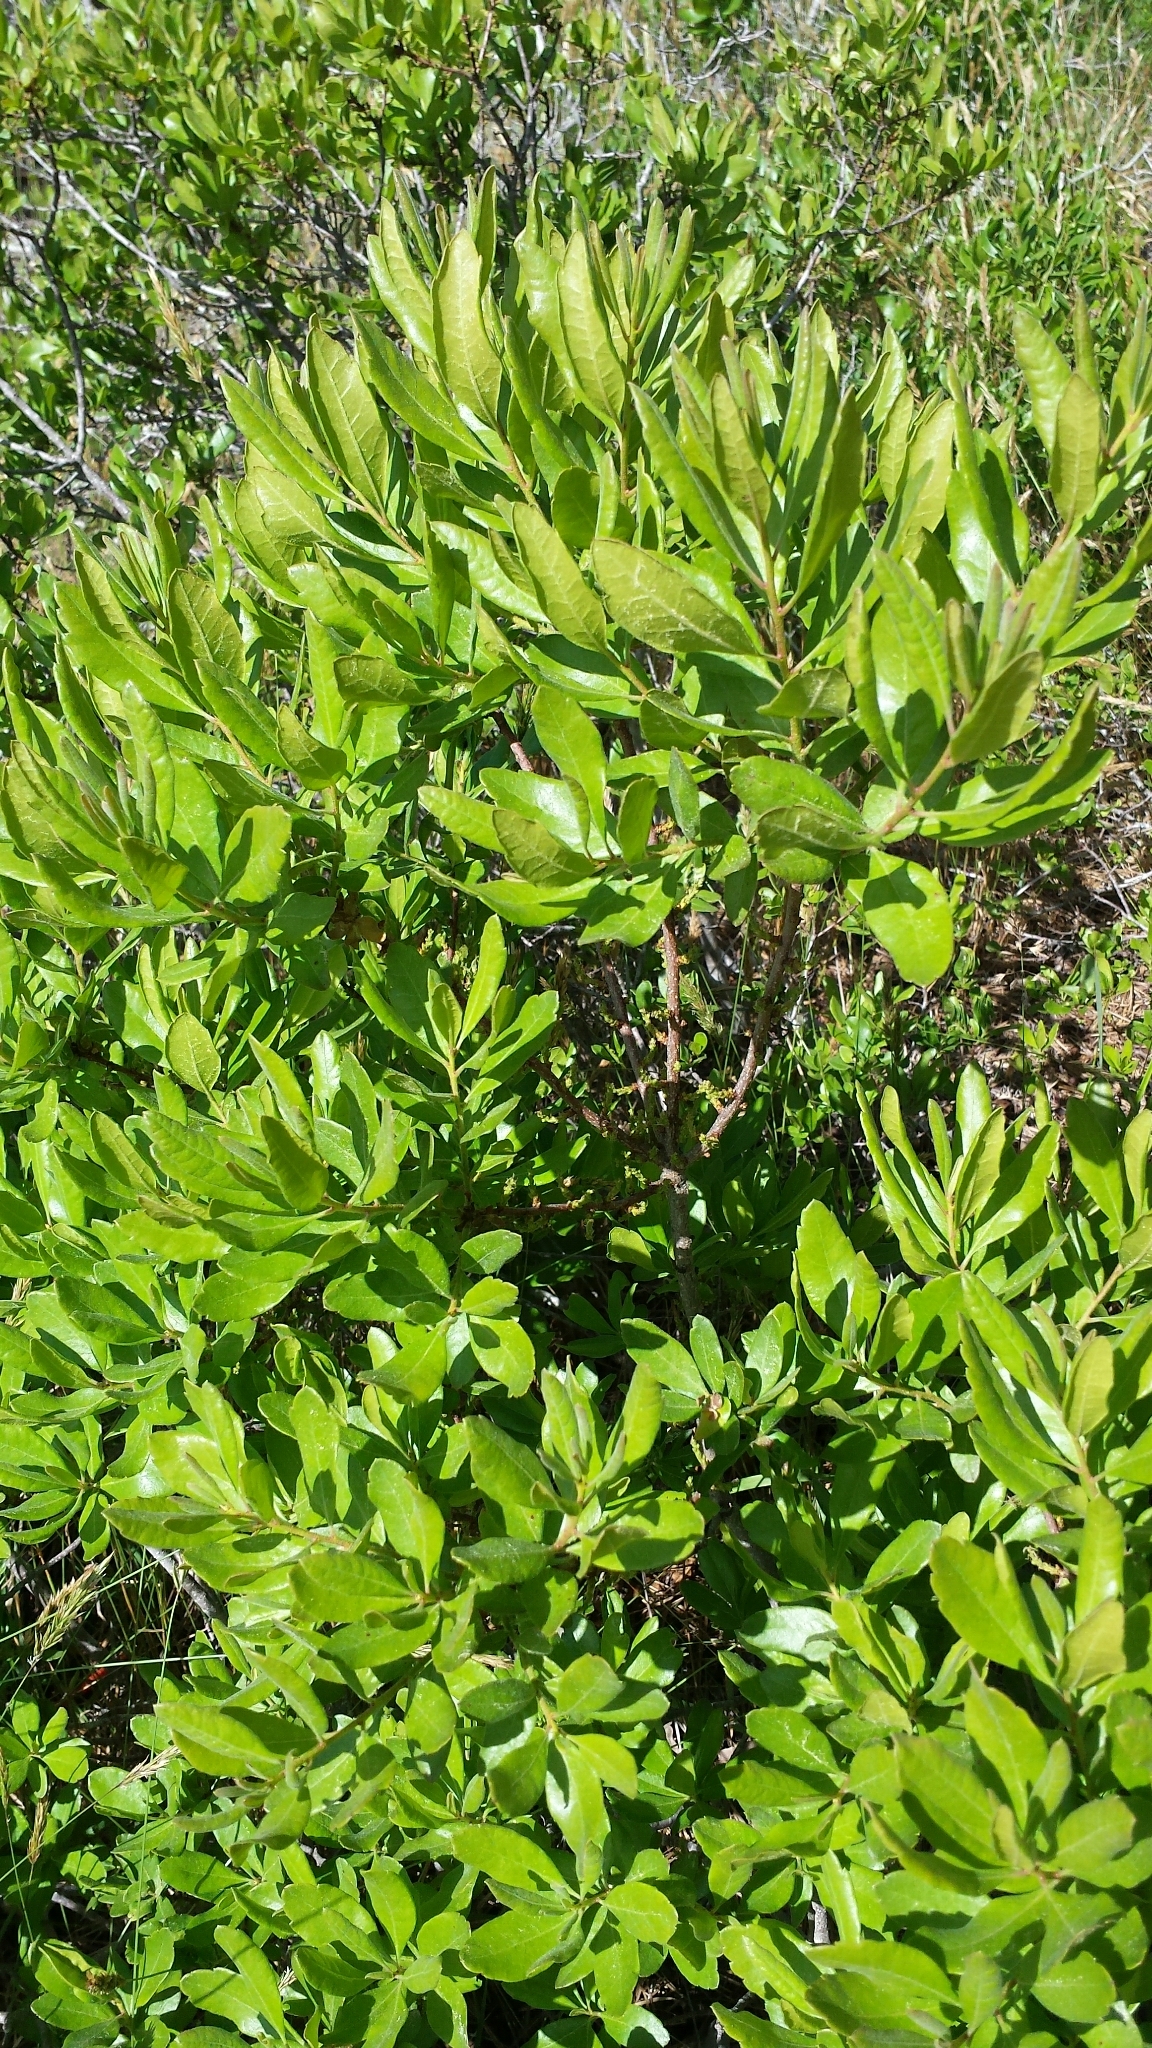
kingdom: Plantae
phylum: Tracheophyta
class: Magnoliopsida
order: Fagales
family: Myricaceae
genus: Morella
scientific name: Morella pensylvanica
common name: Northern bayberry
